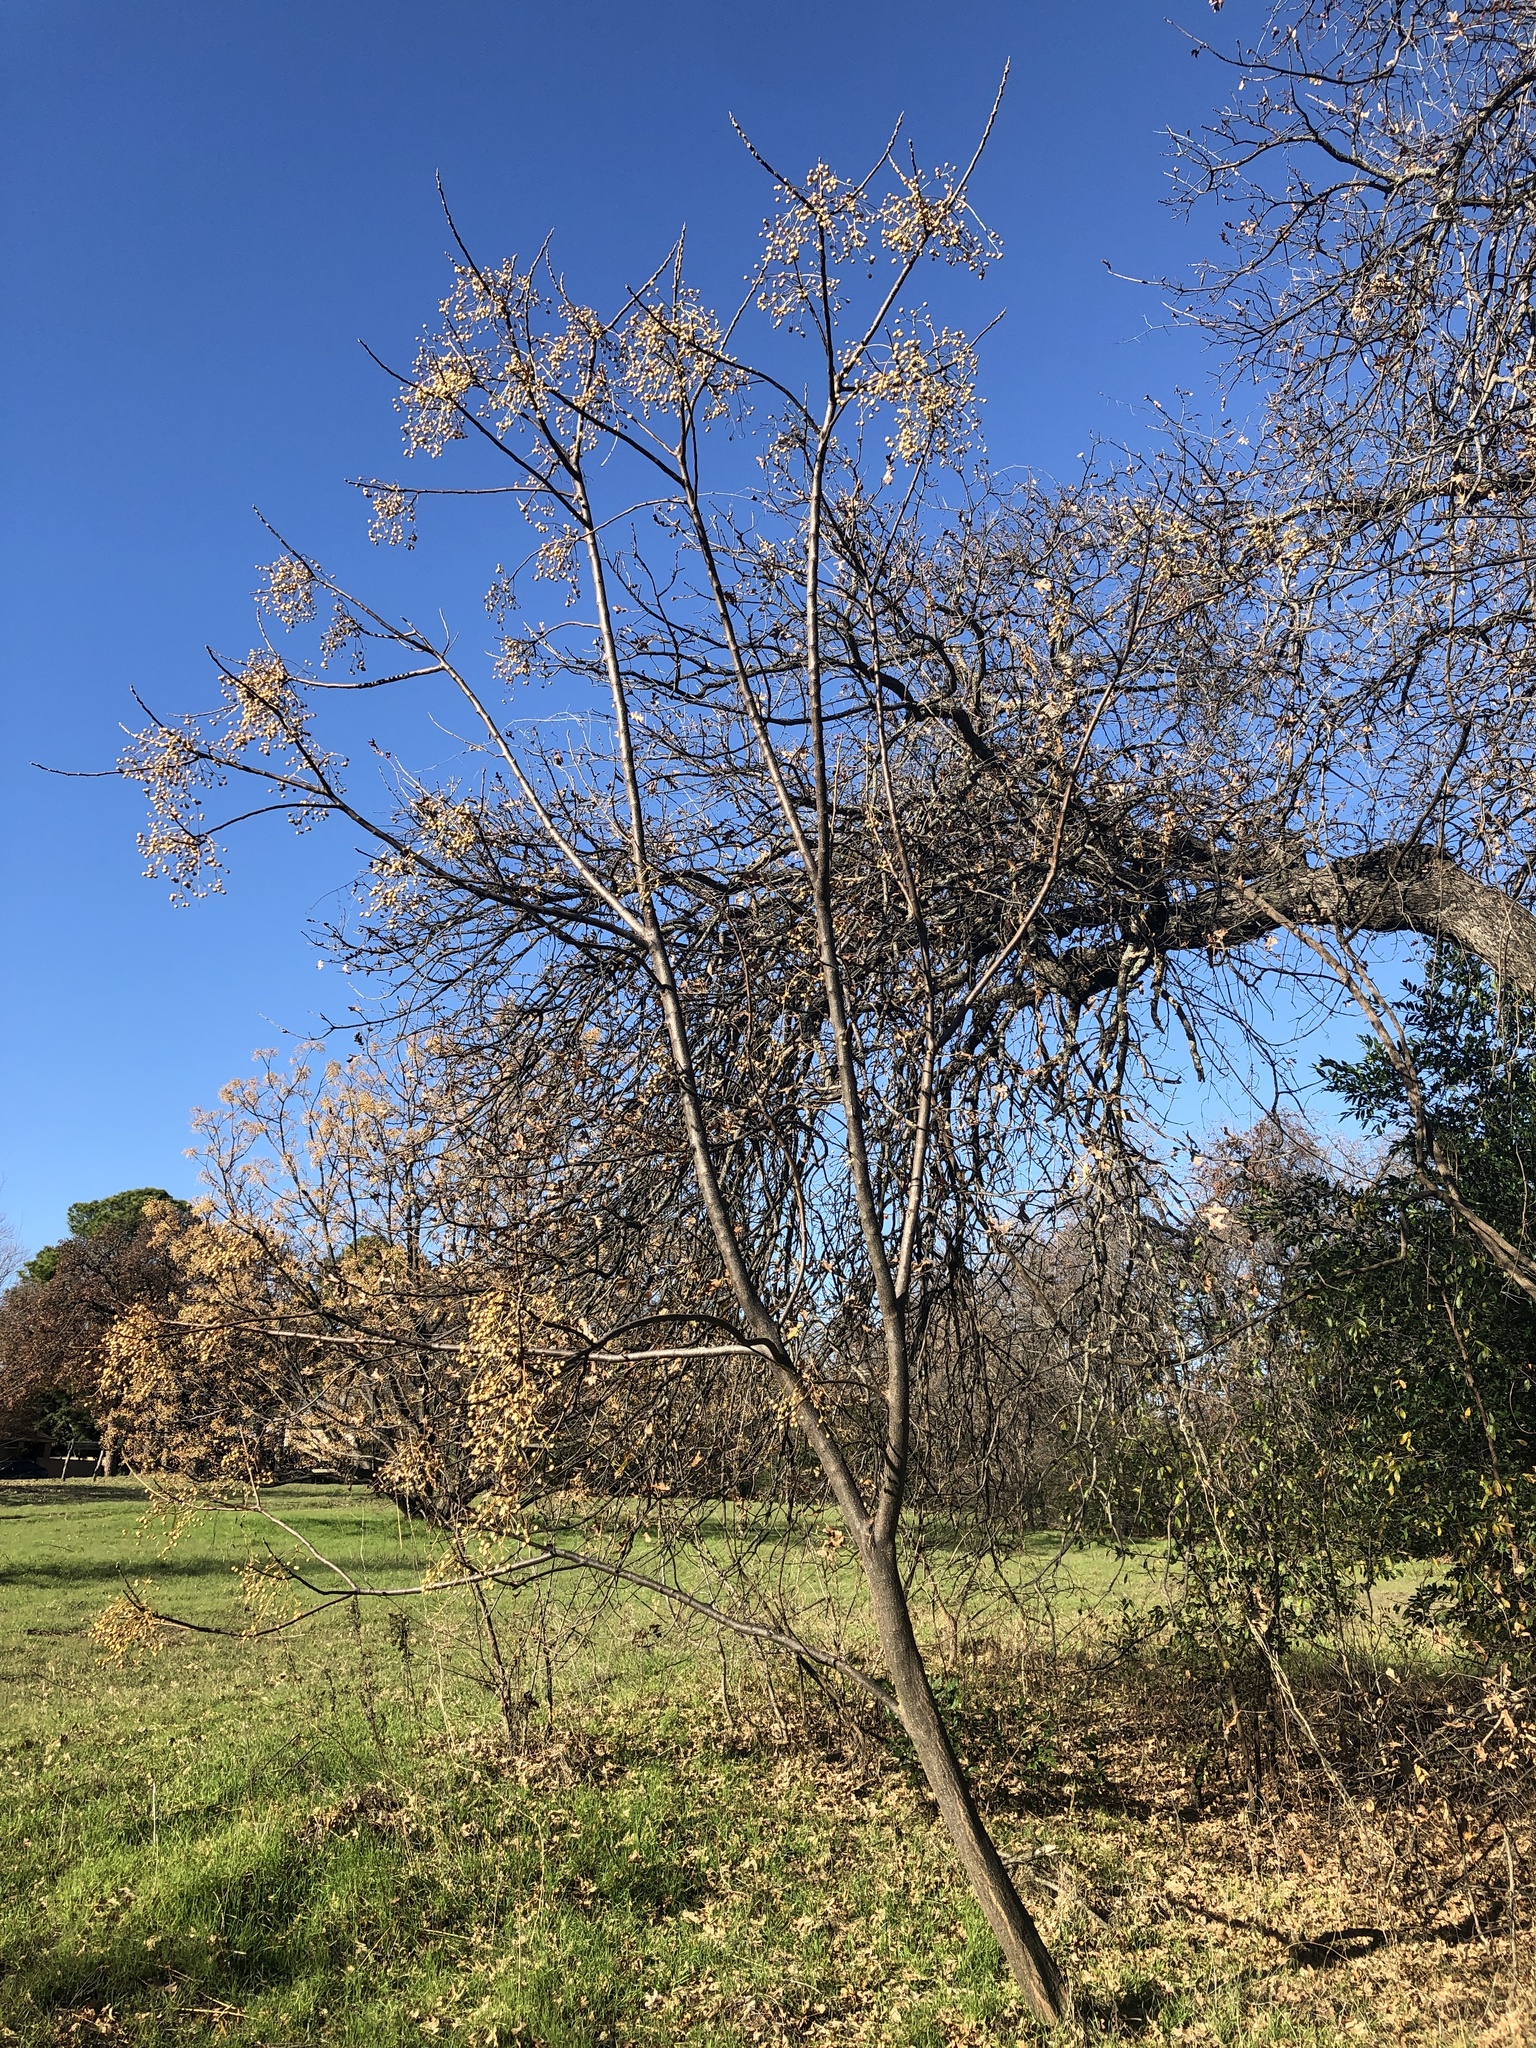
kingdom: Plantae
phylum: Tracheophyta
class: Magnoliopsida
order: Sapindales
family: Meliaceae
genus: Melia
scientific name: Melia azedarach
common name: Chinaberrytree
